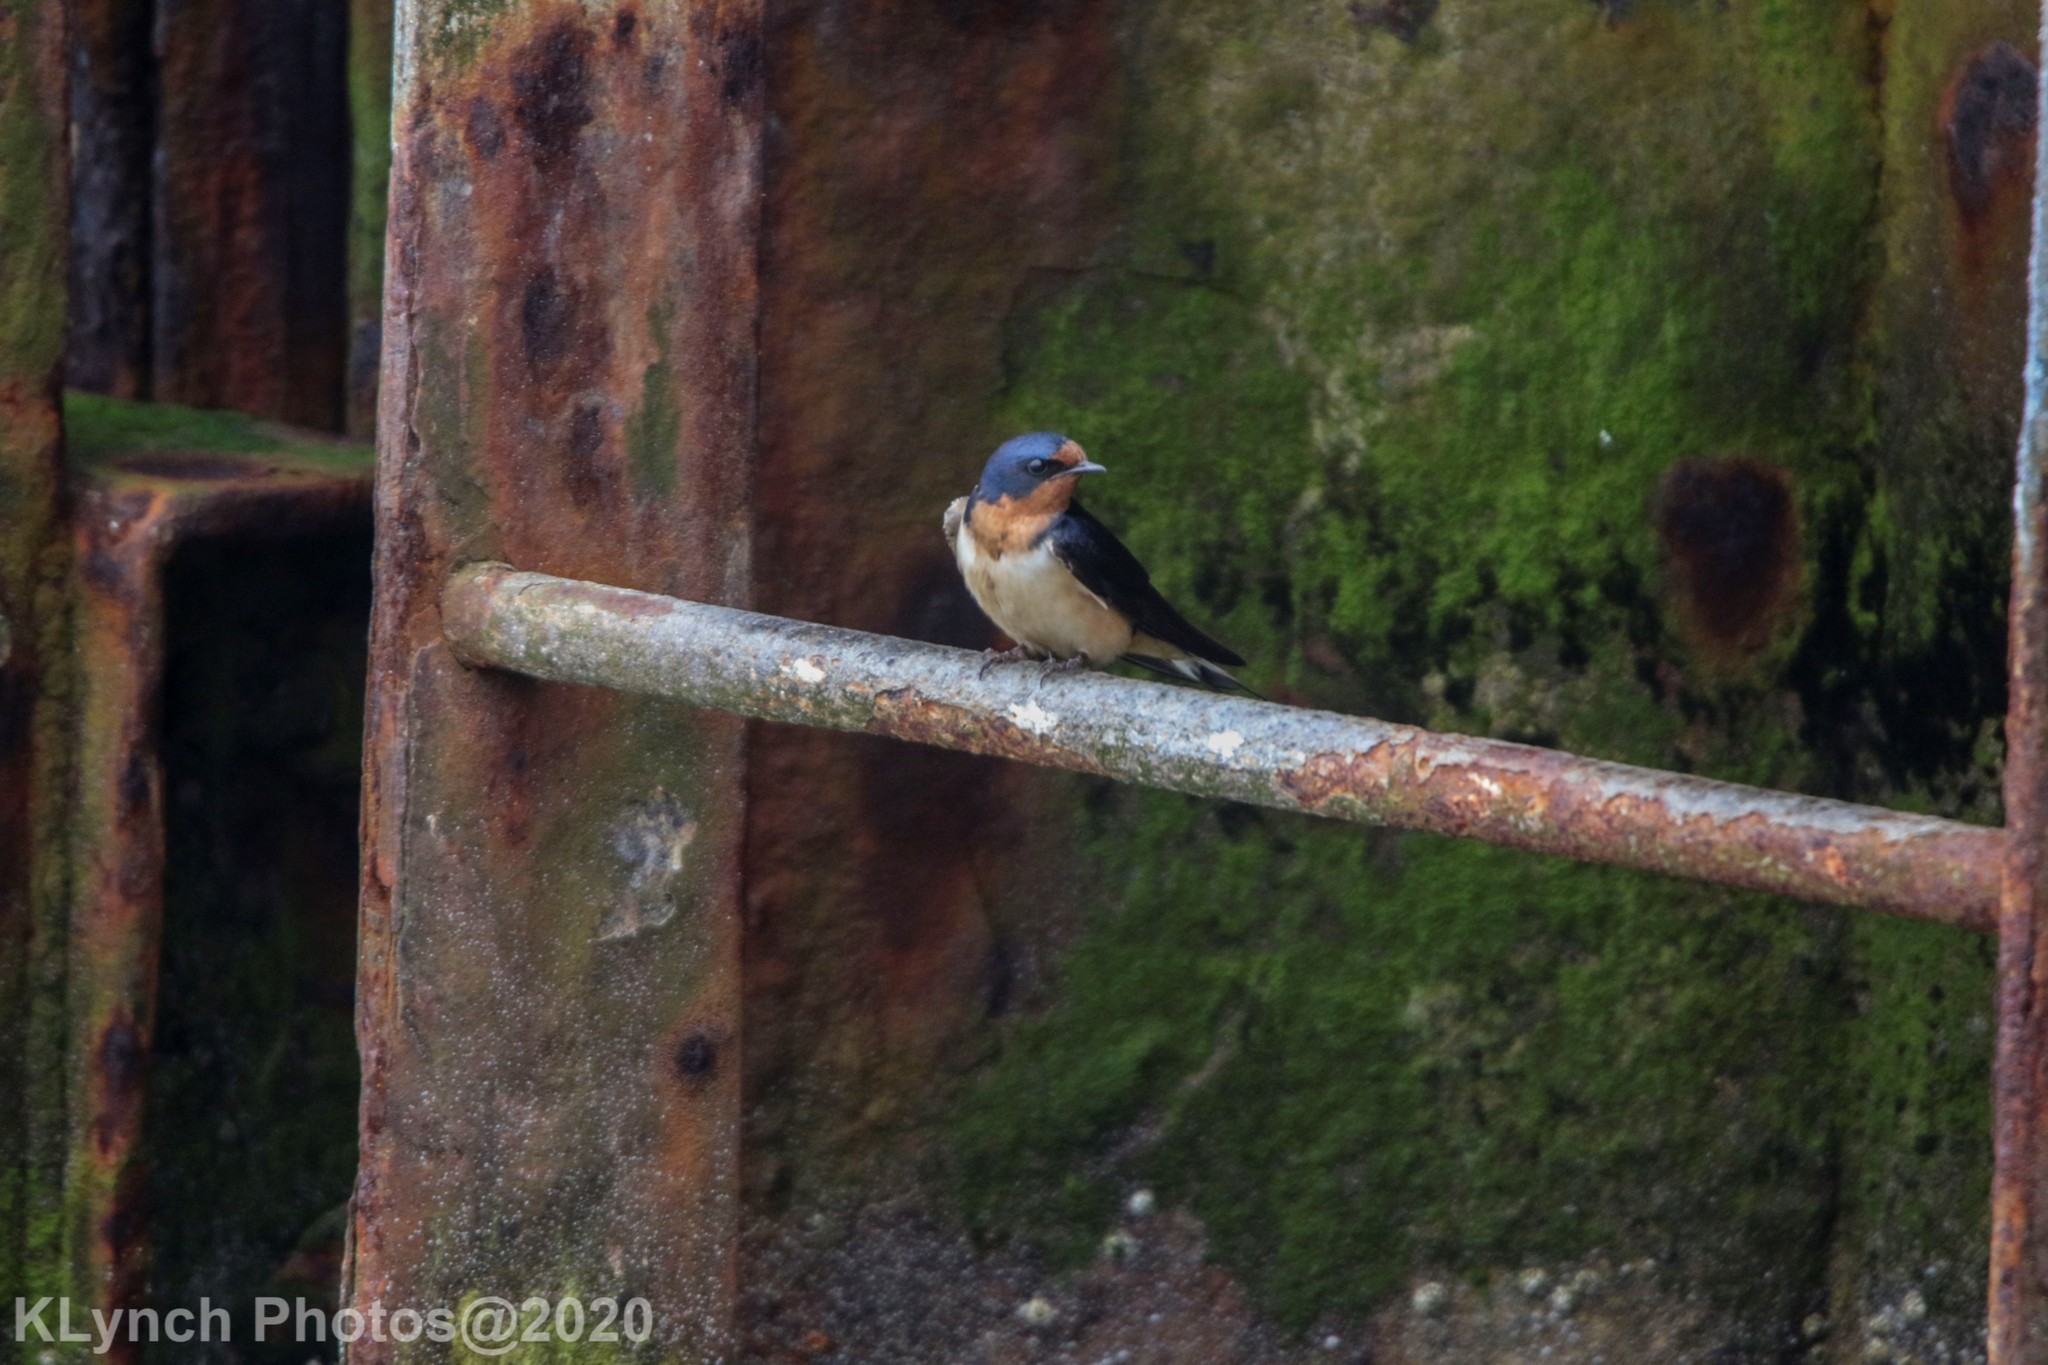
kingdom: Animalia
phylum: Chordata
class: Aves
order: Passeriformes
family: Hirundinidae
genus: Hirundo
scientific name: Hirundo rustica
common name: Barn swallow
